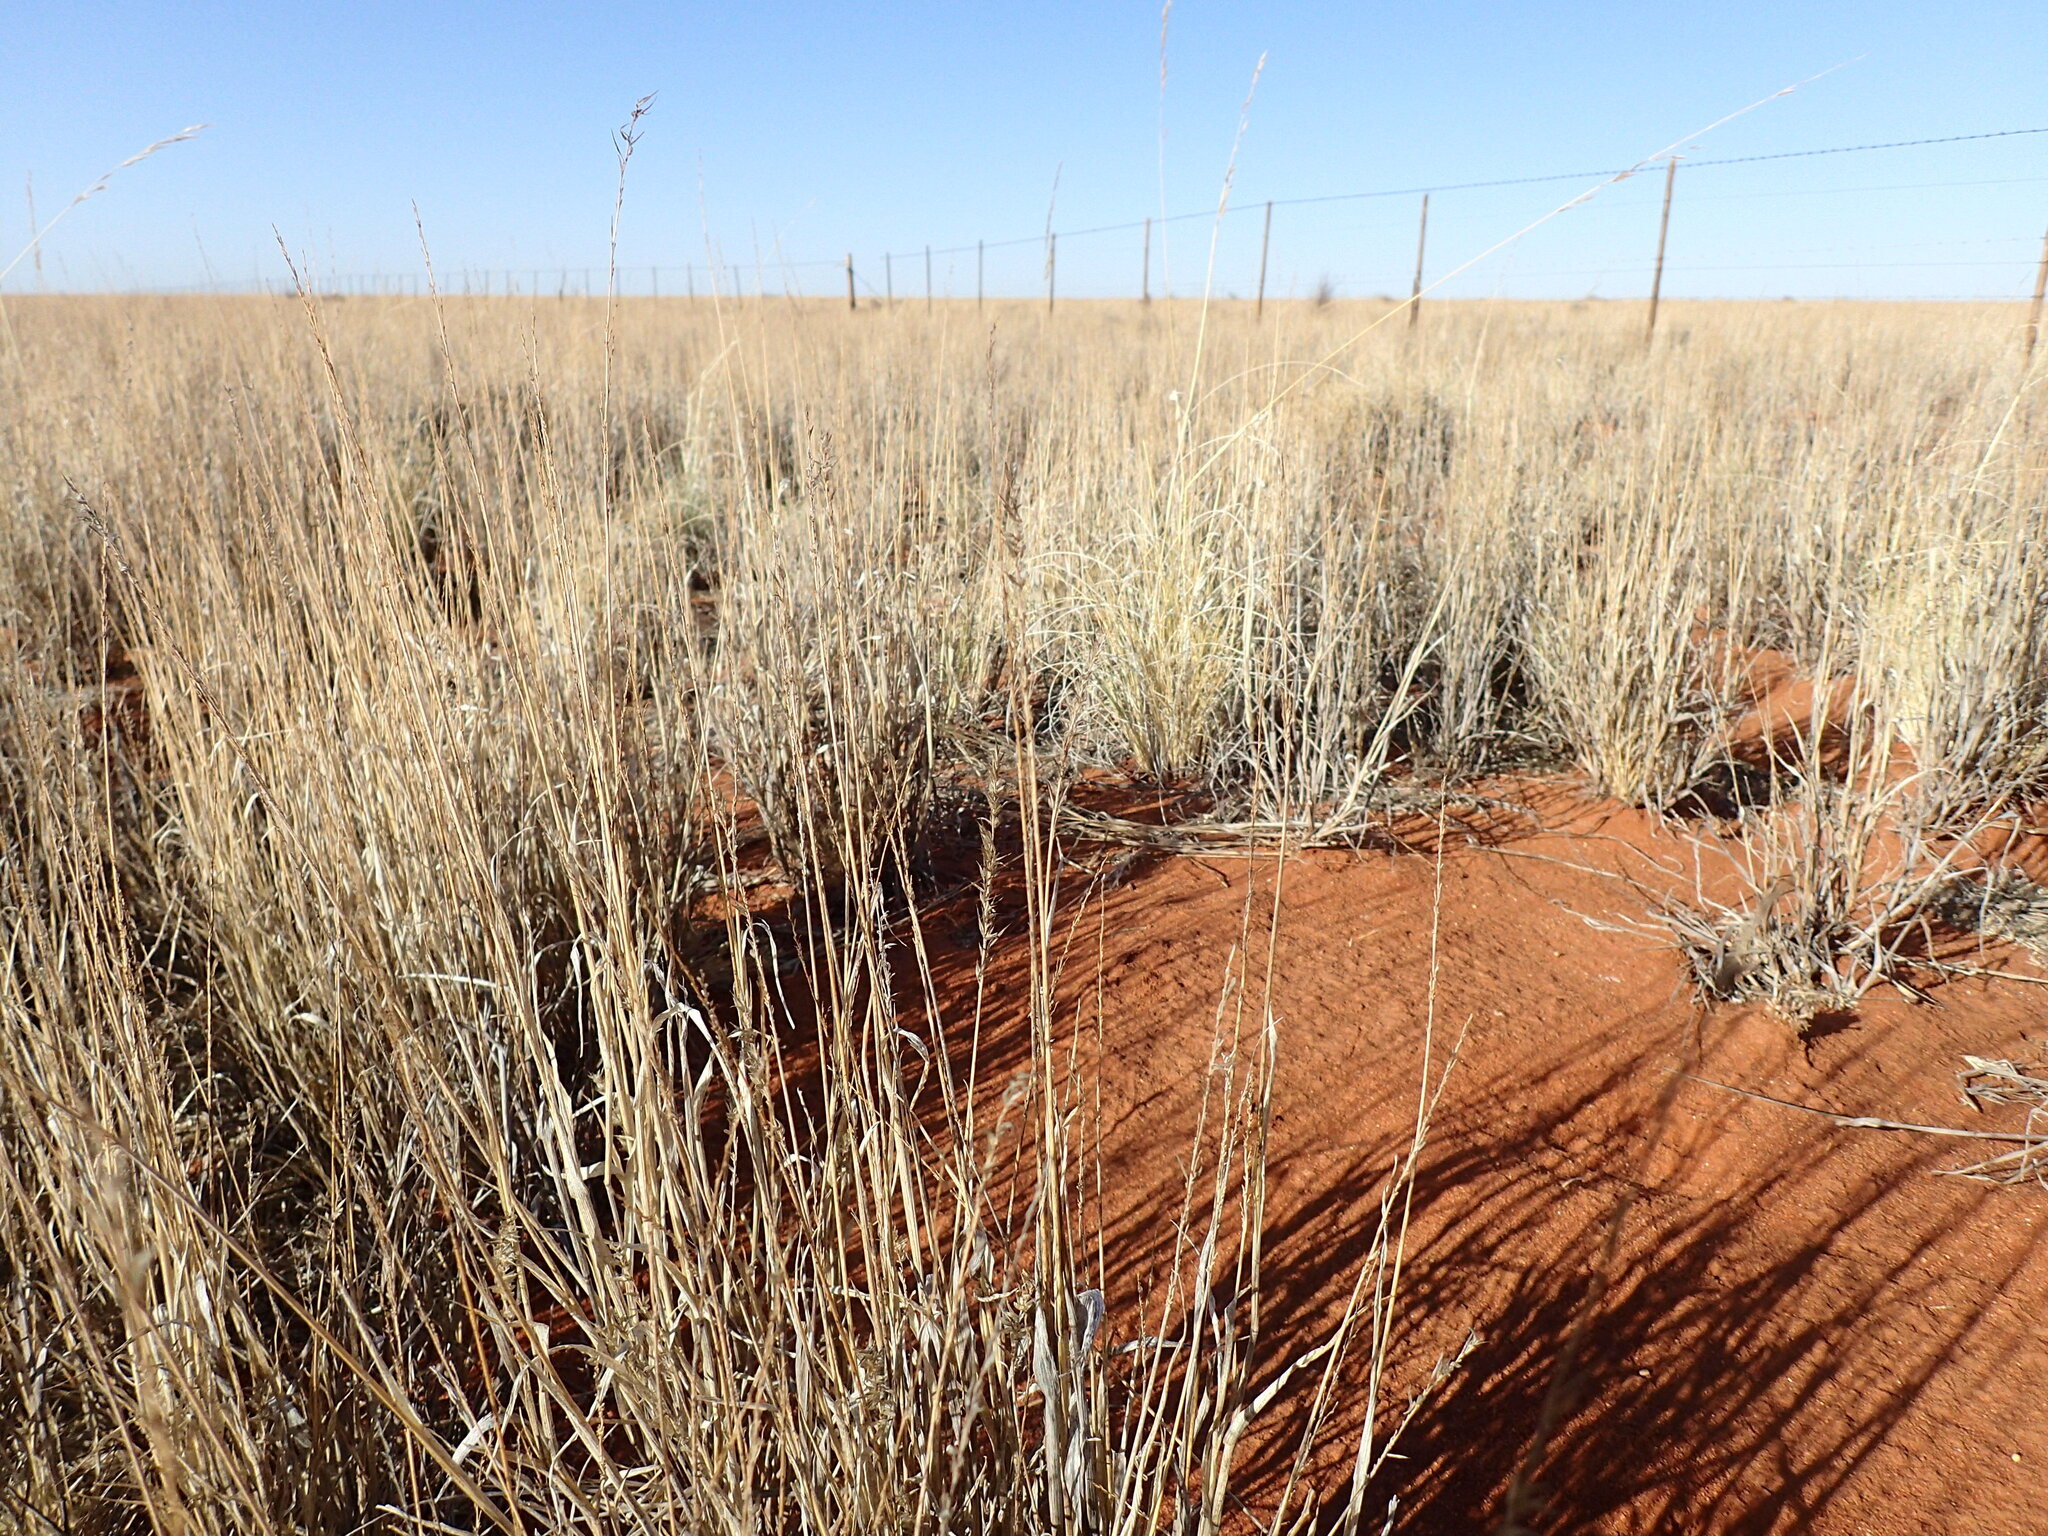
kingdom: Plantae
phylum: Tracheophyta
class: Liliopsida
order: Poales
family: Poaceae
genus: Schmidtia
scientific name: Schmidtia pappophoroides
